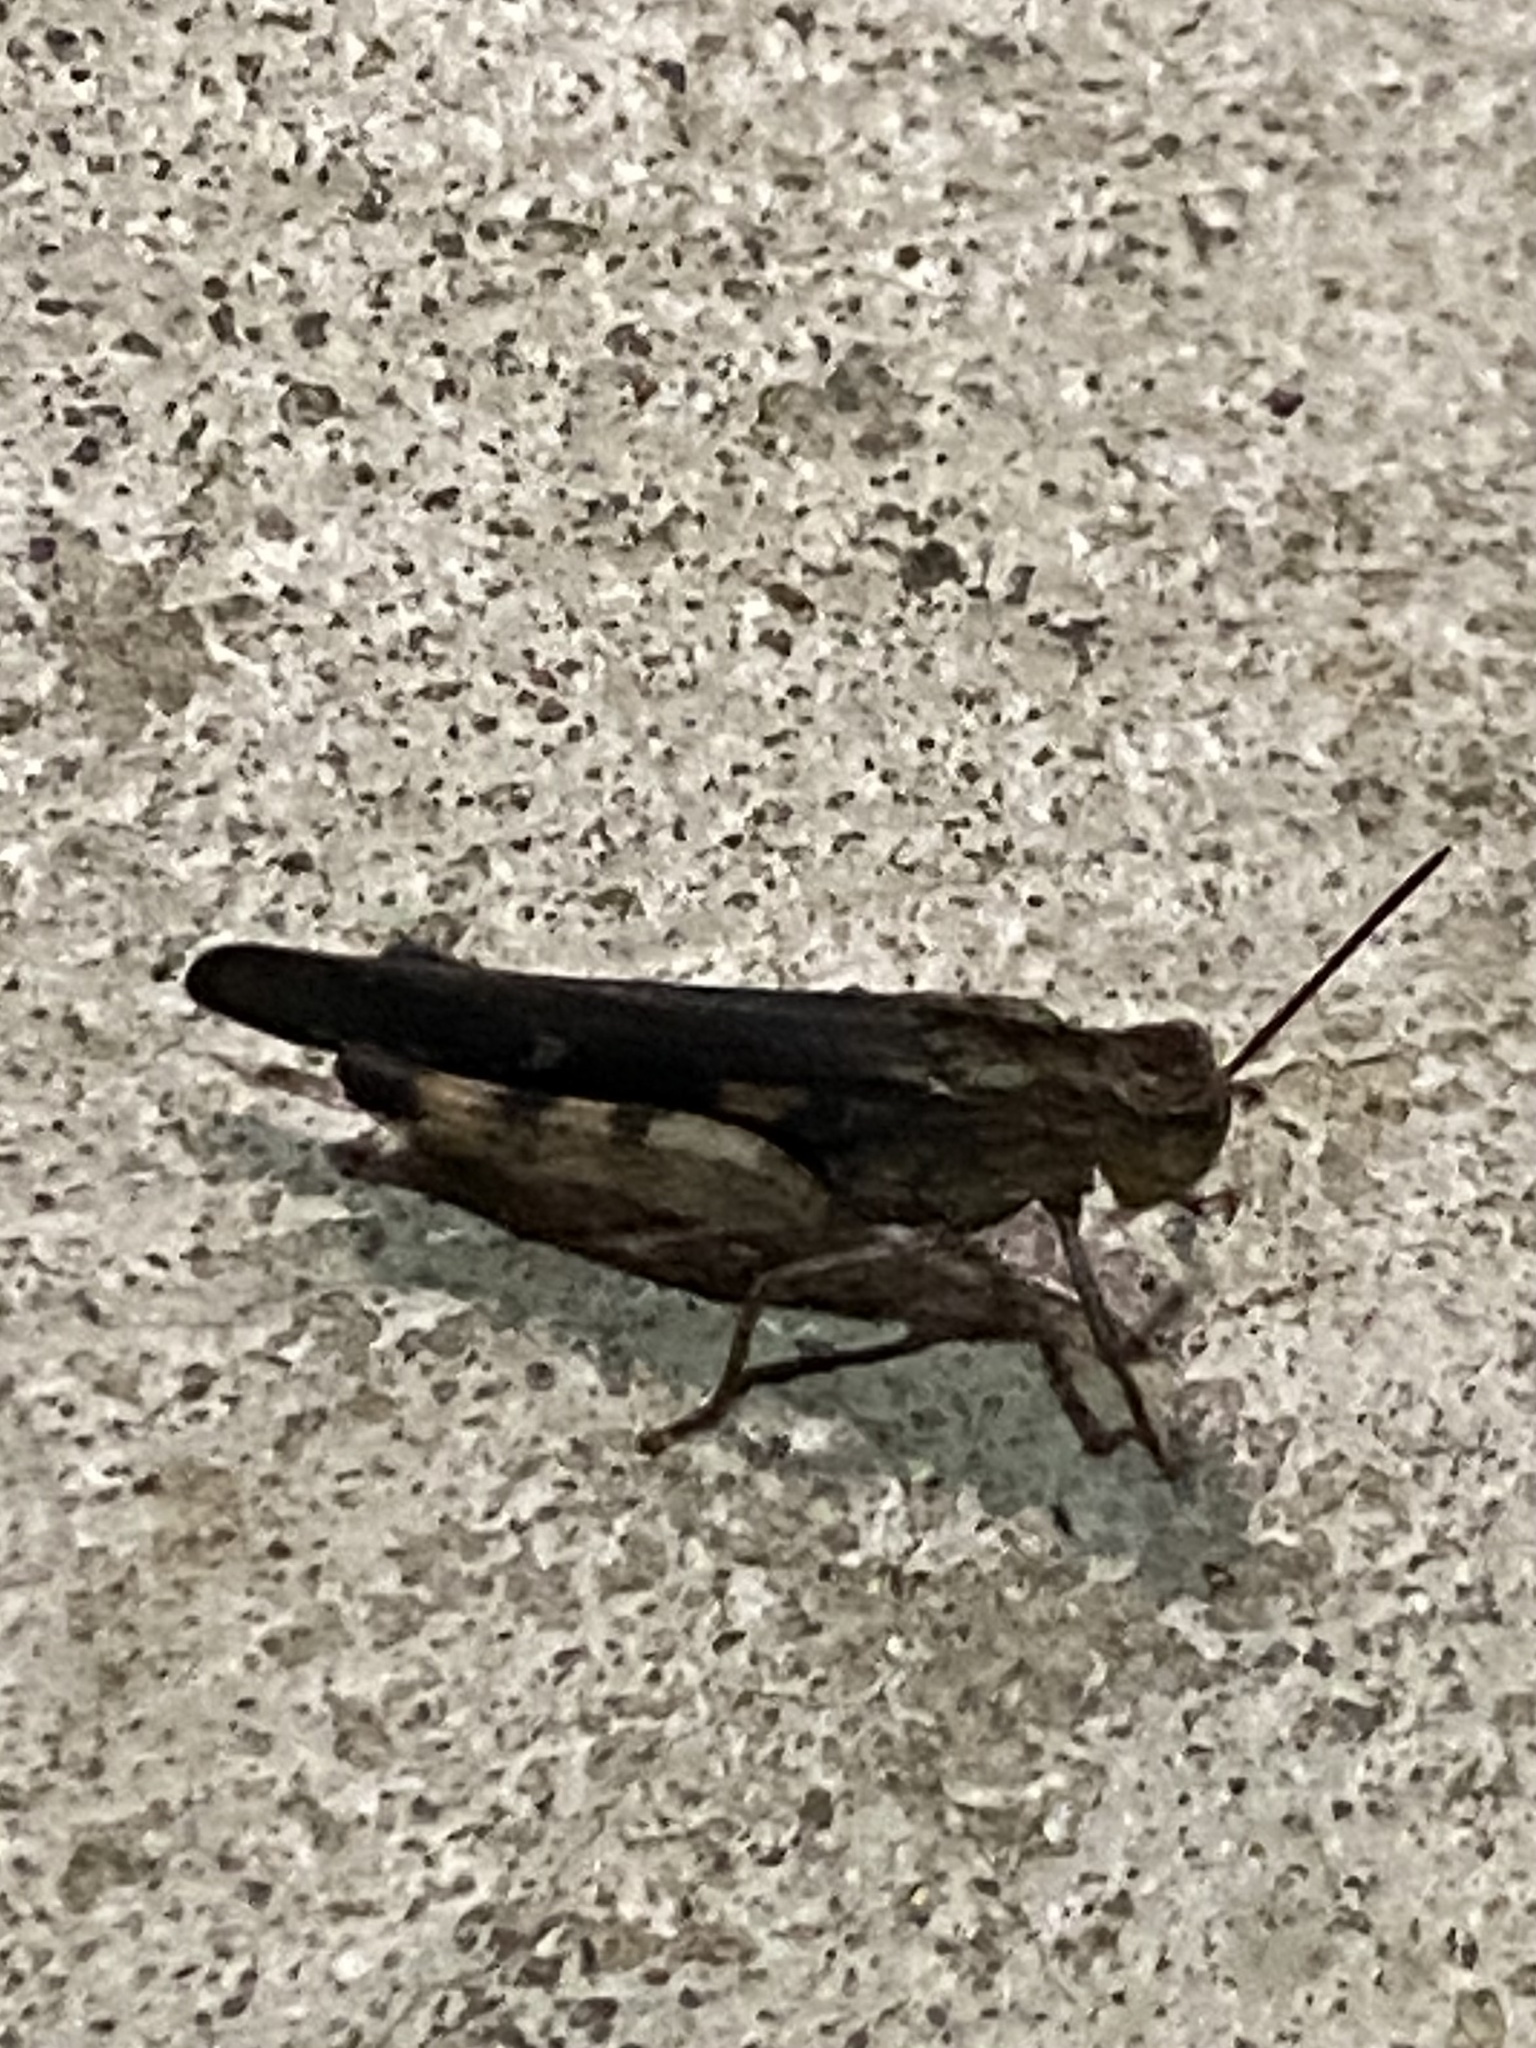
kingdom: Animalia
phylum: Arthropoda
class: Insecta
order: Orthoptera
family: Acrididae
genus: Chortophaga
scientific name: Chortophaga viridifasciata
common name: Green-striped grasshopper
